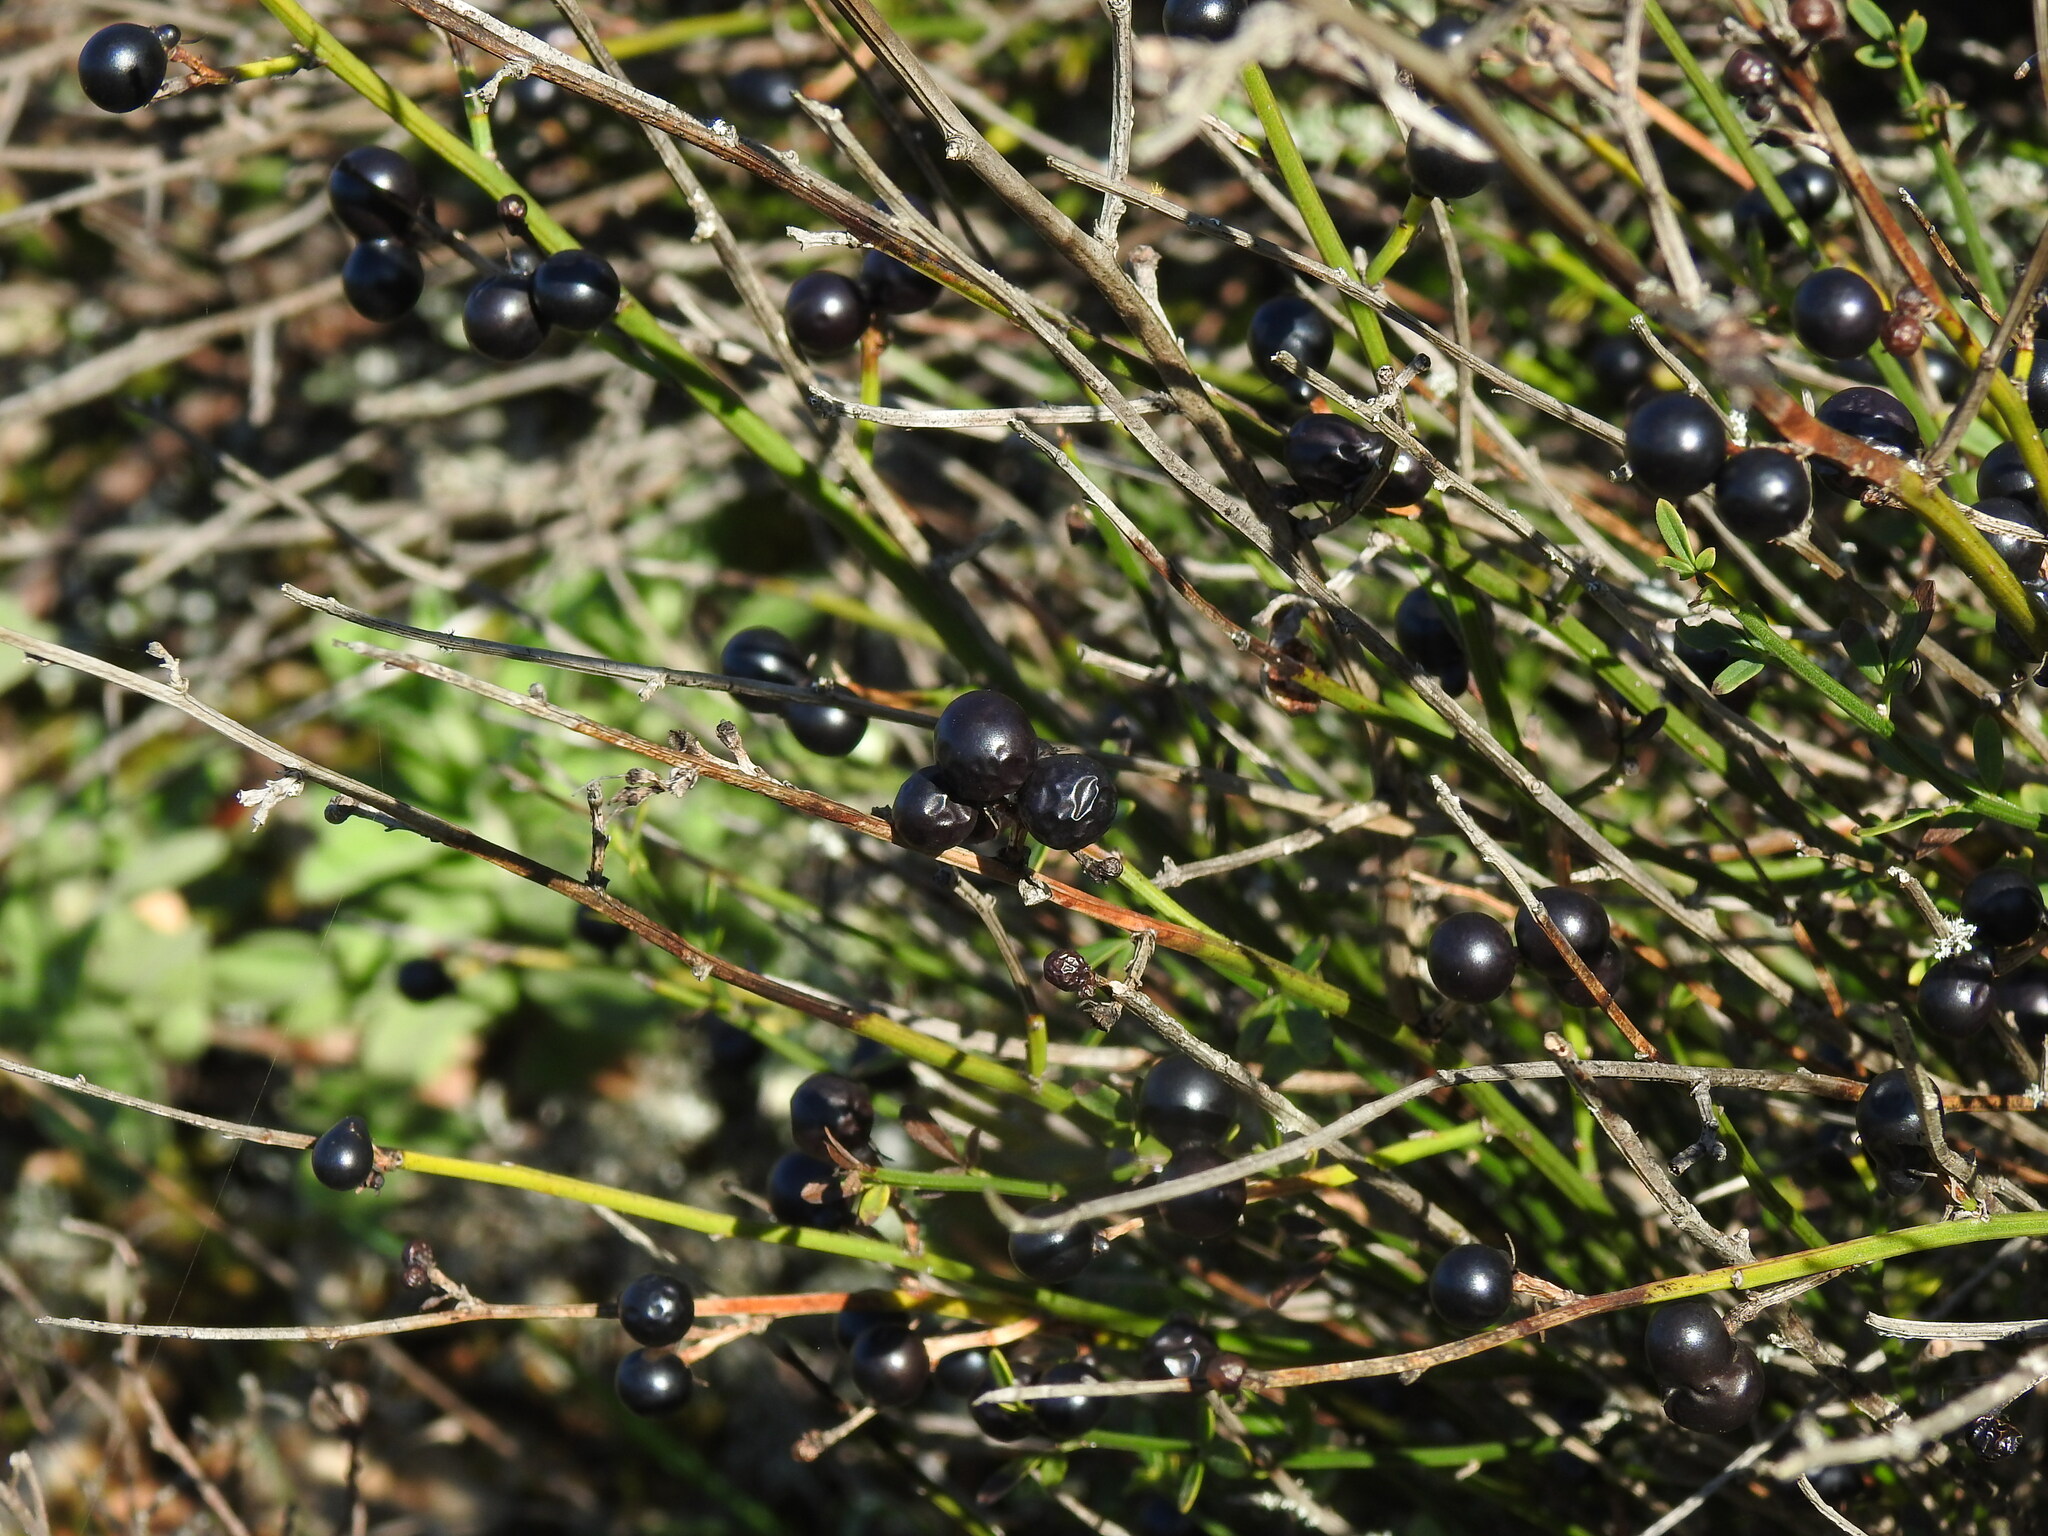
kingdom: Plantae
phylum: Tracheophyta
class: Magnoliopsida
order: Lamiales
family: Oleaceae
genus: Chrysojasminum
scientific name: Chrysojasminum fruticans
